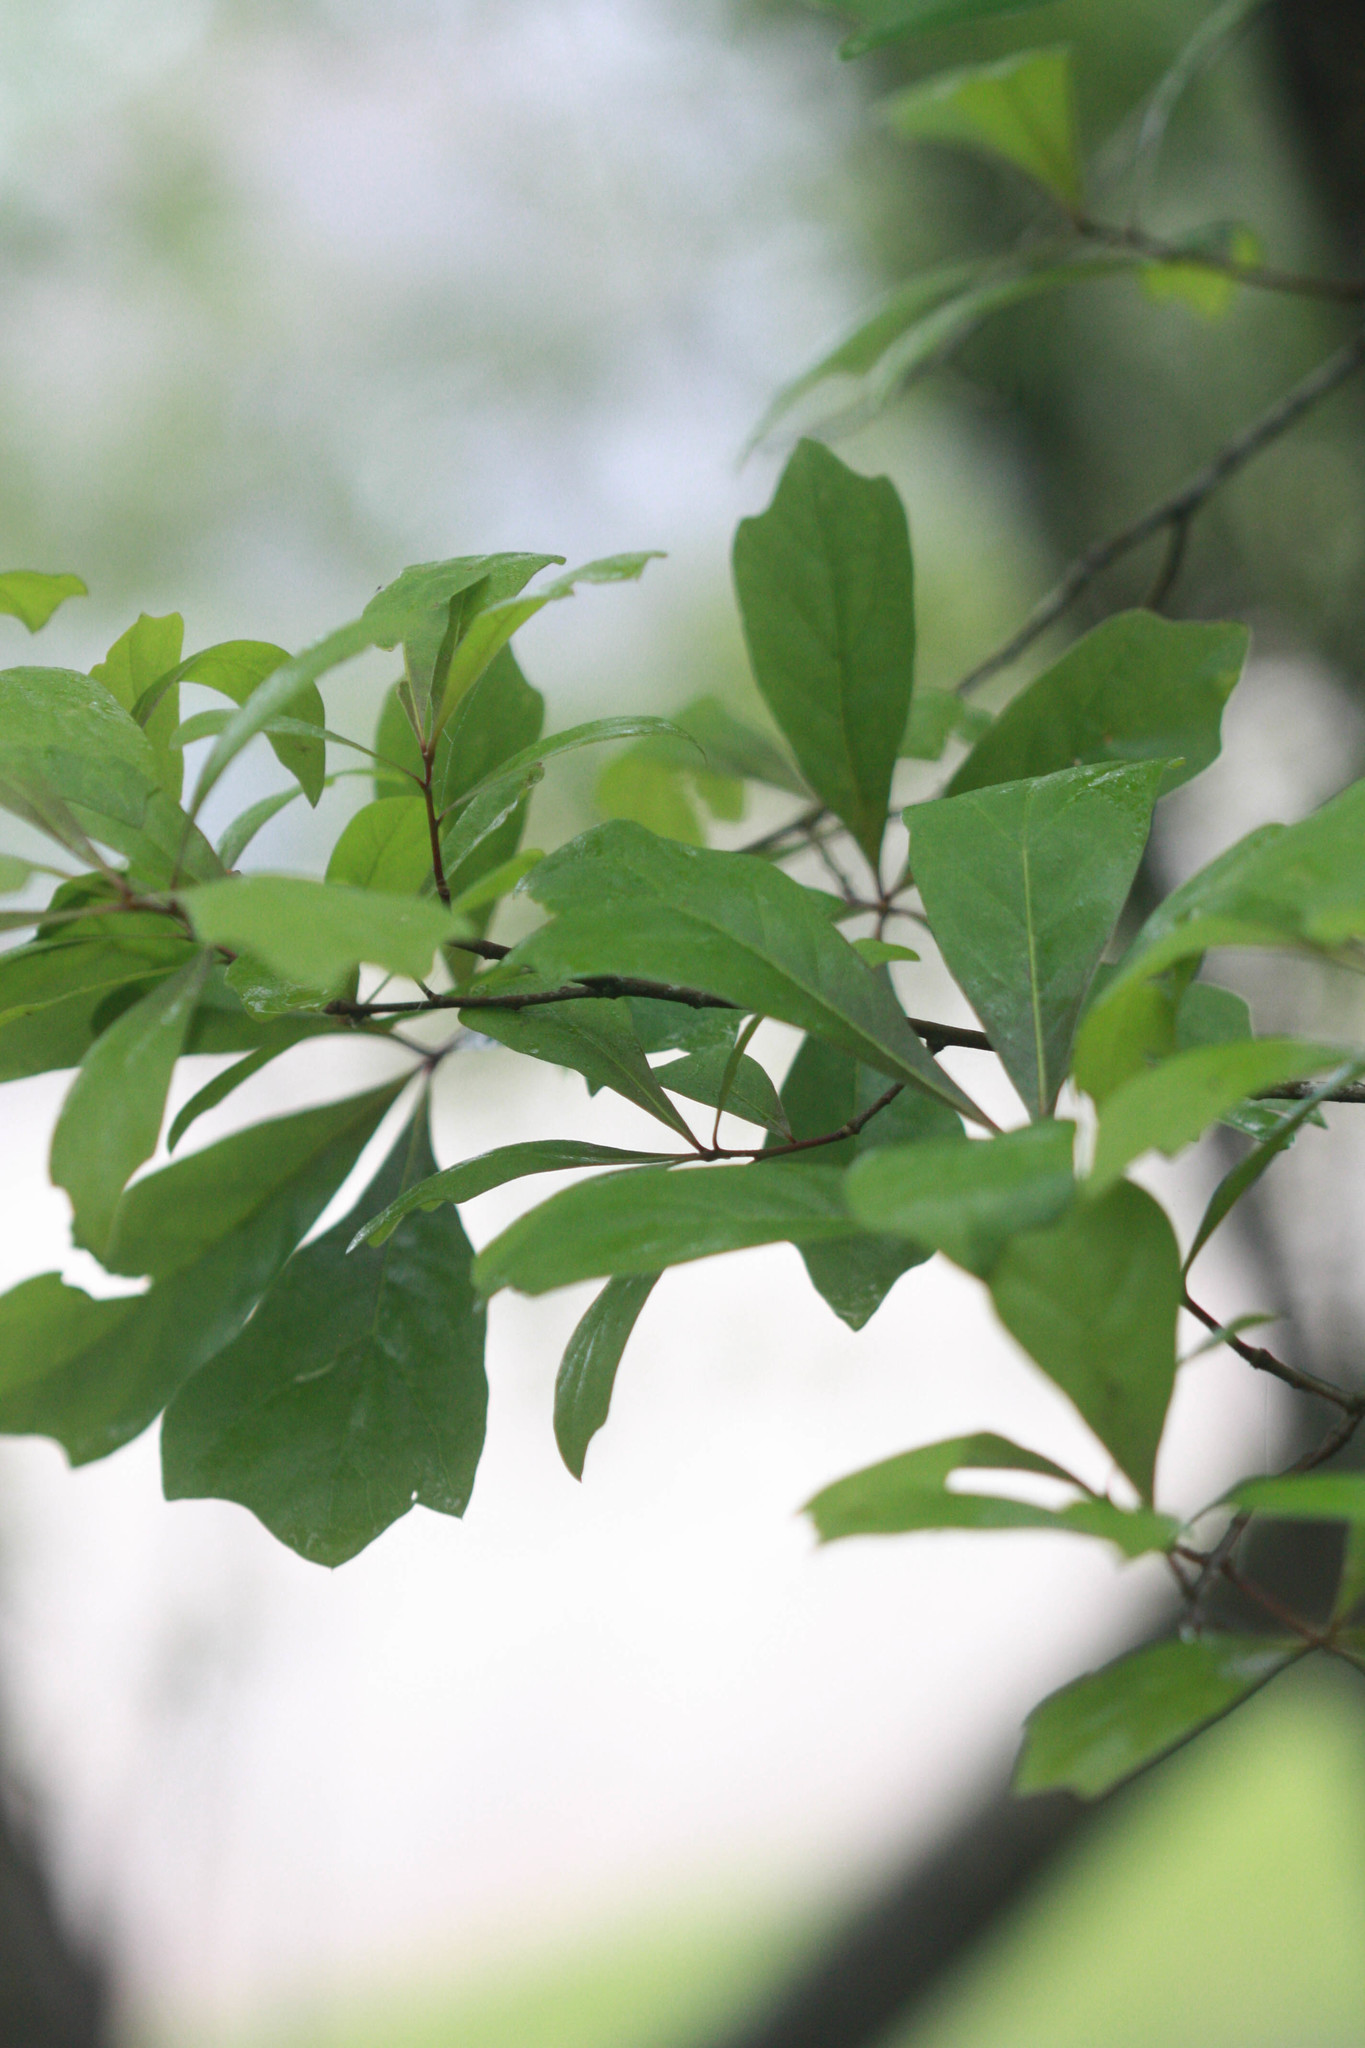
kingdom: Plantae
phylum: Tracheophyta
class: Magnoliopsida
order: Fagales
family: Fagaceae
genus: Quercus
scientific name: Quercus nigra
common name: Water oak
